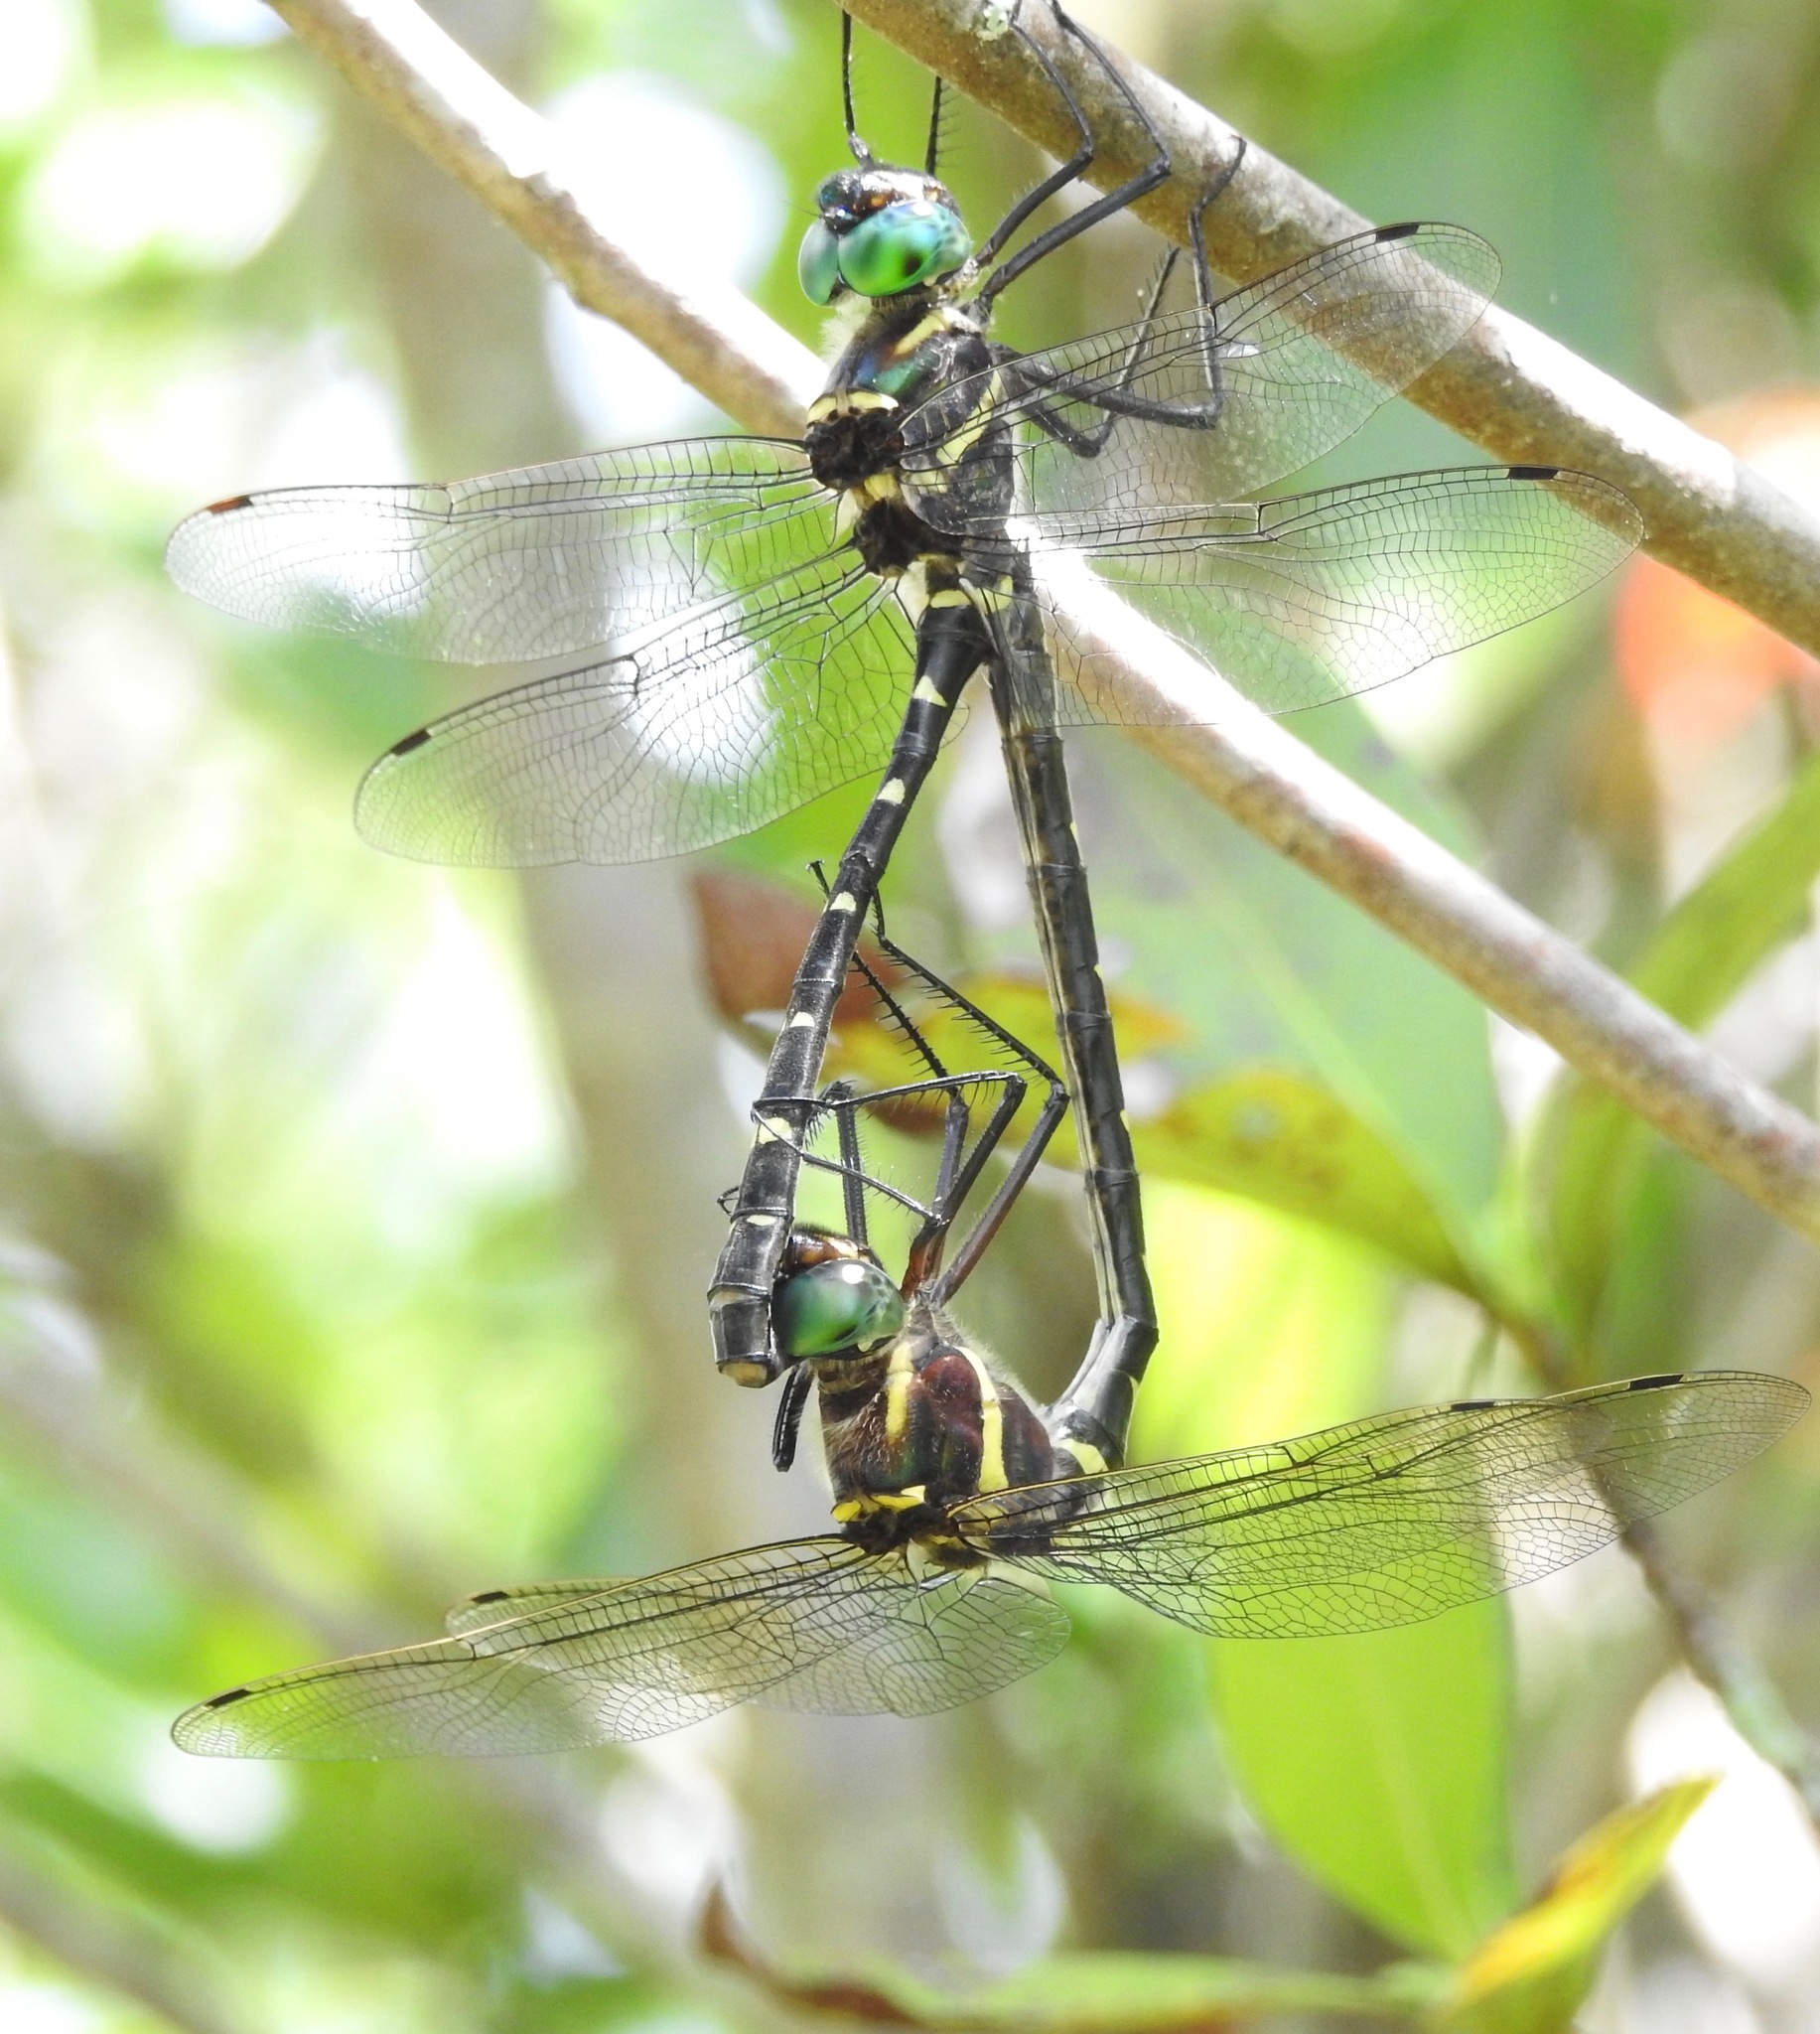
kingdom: Animalia
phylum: Arthropoda
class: Insecta
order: Odonata
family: Macromiidae
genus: Macromia
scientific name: Macromia taeniolata
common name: Royal river cruiser
